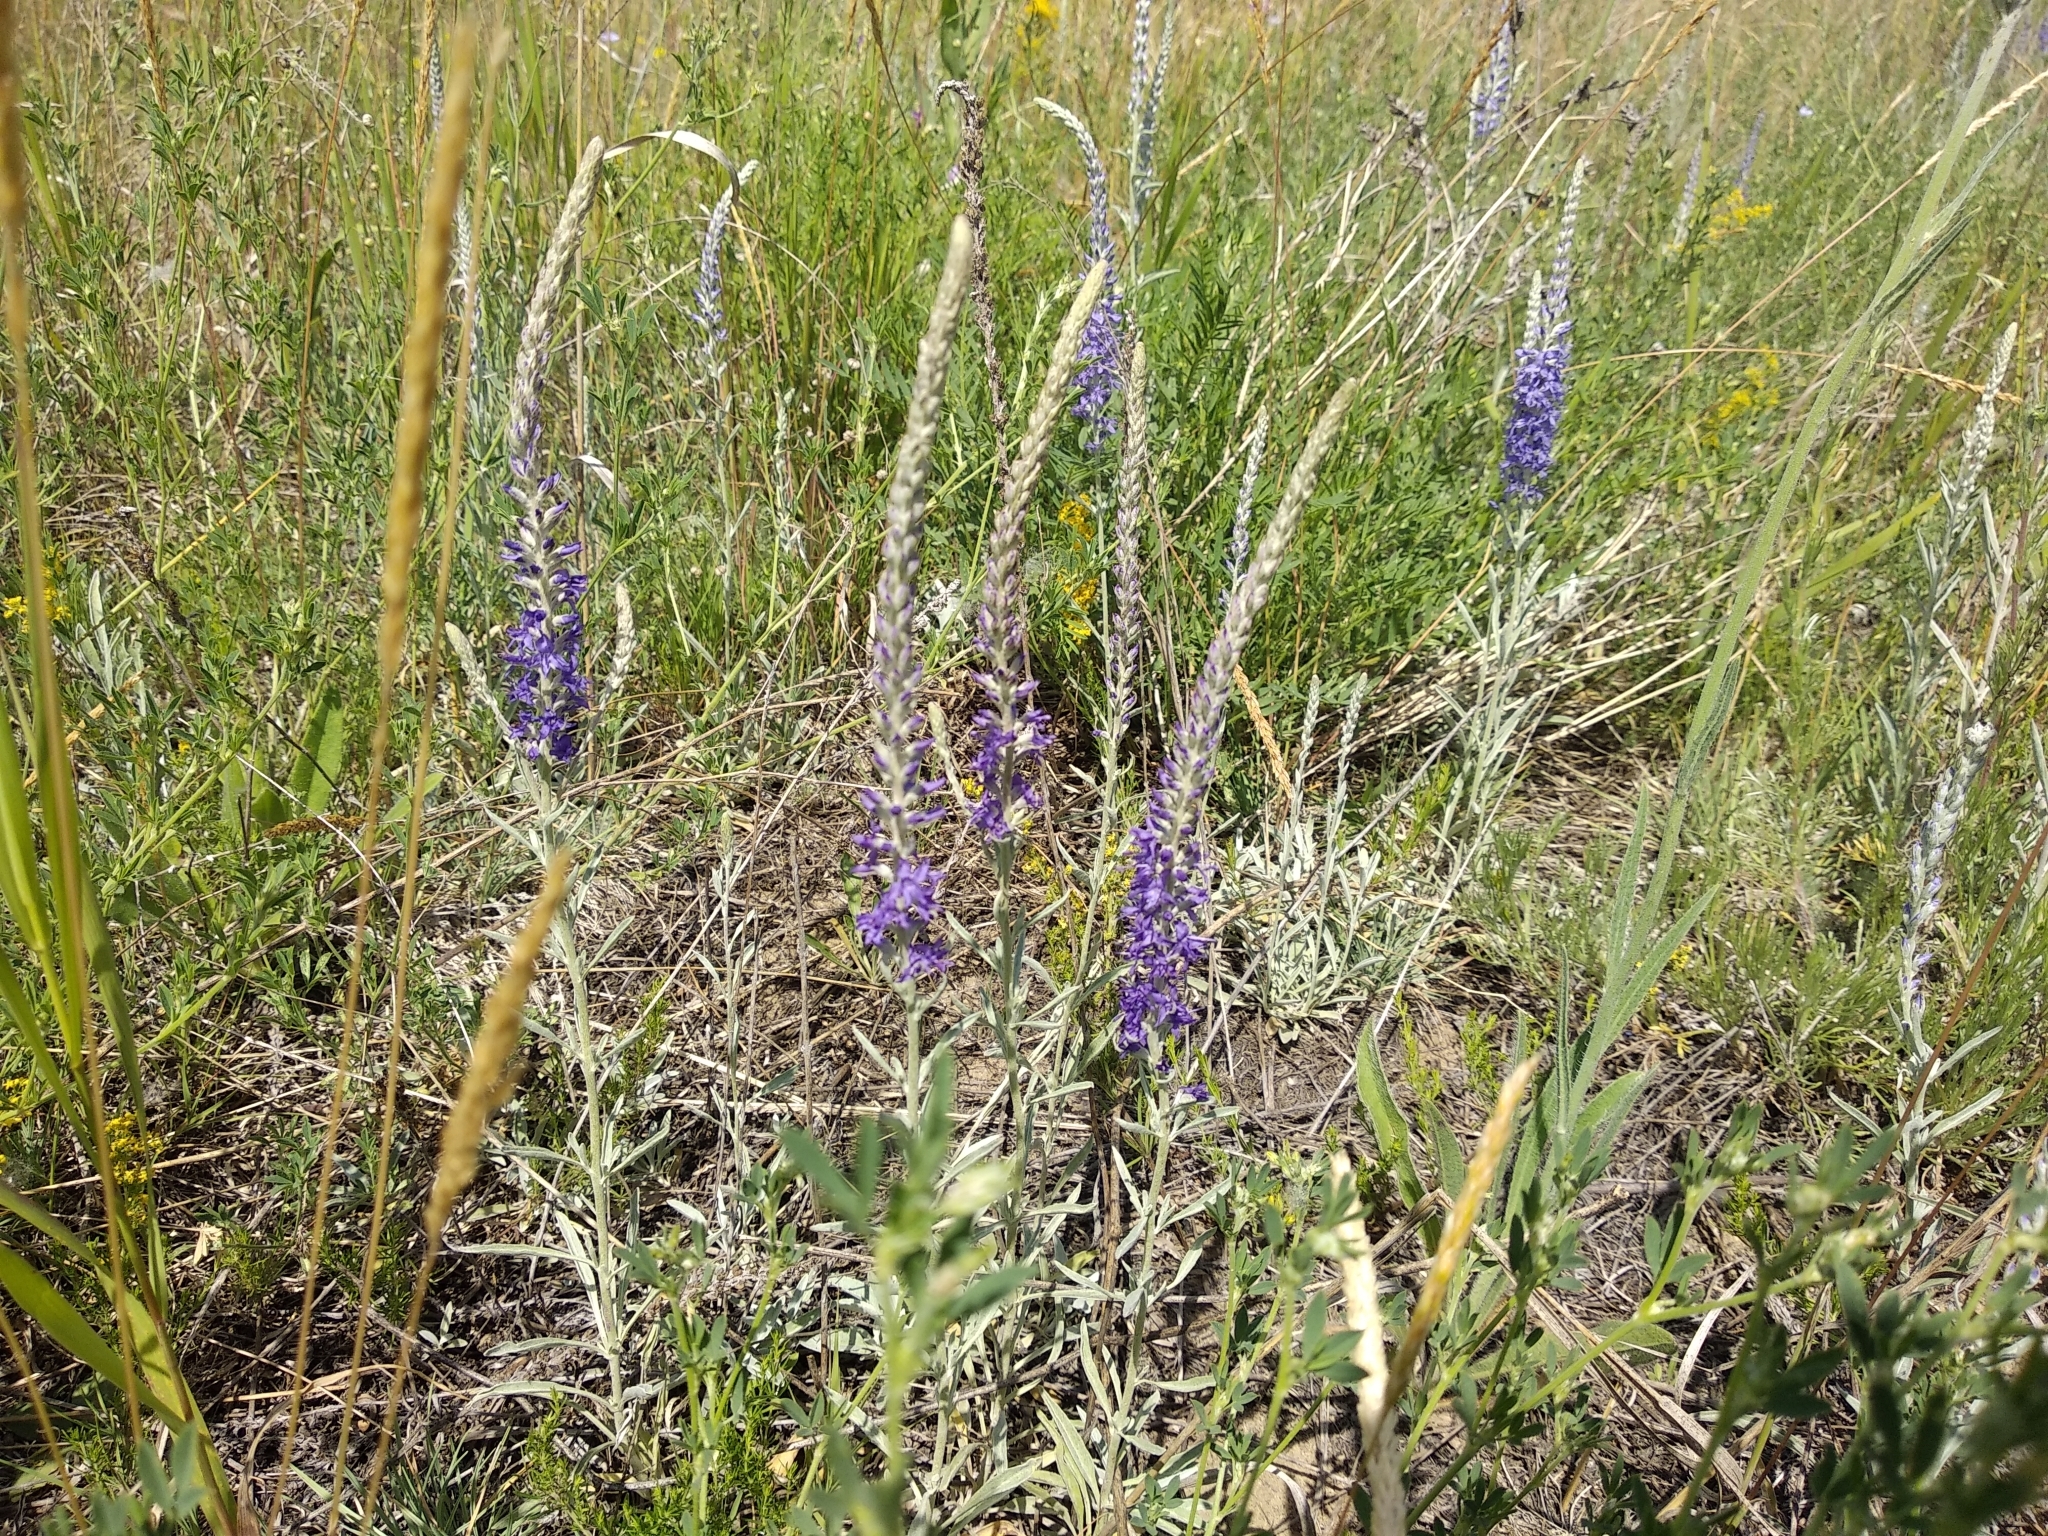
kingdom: Plantae
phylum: Tracheophyta
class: Magnoliopsida
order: Lamiales
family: Plantaginaceae
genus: Veronica
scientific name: Veronica incana
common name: Silver speedwell
